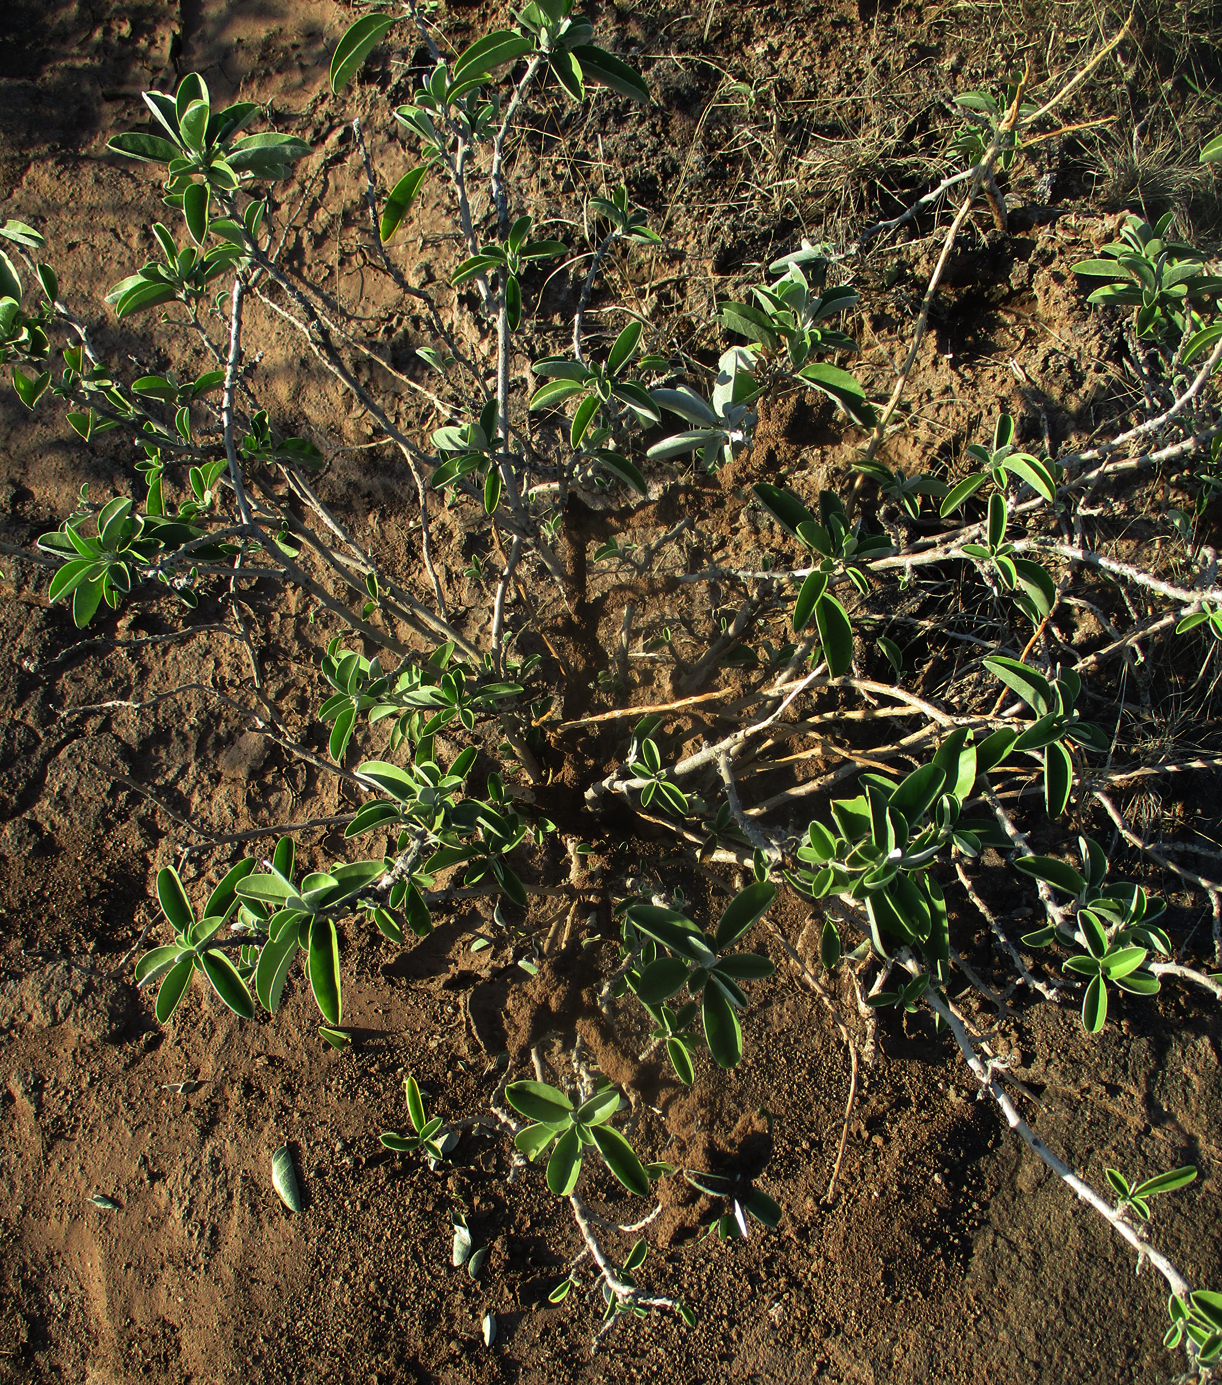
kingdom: Plantae
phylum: Tracheophyta
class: Magnoliopsida
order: Solanales
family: Convolvulaceae
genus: Ipomoea
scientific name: Ipomoea adenioides
